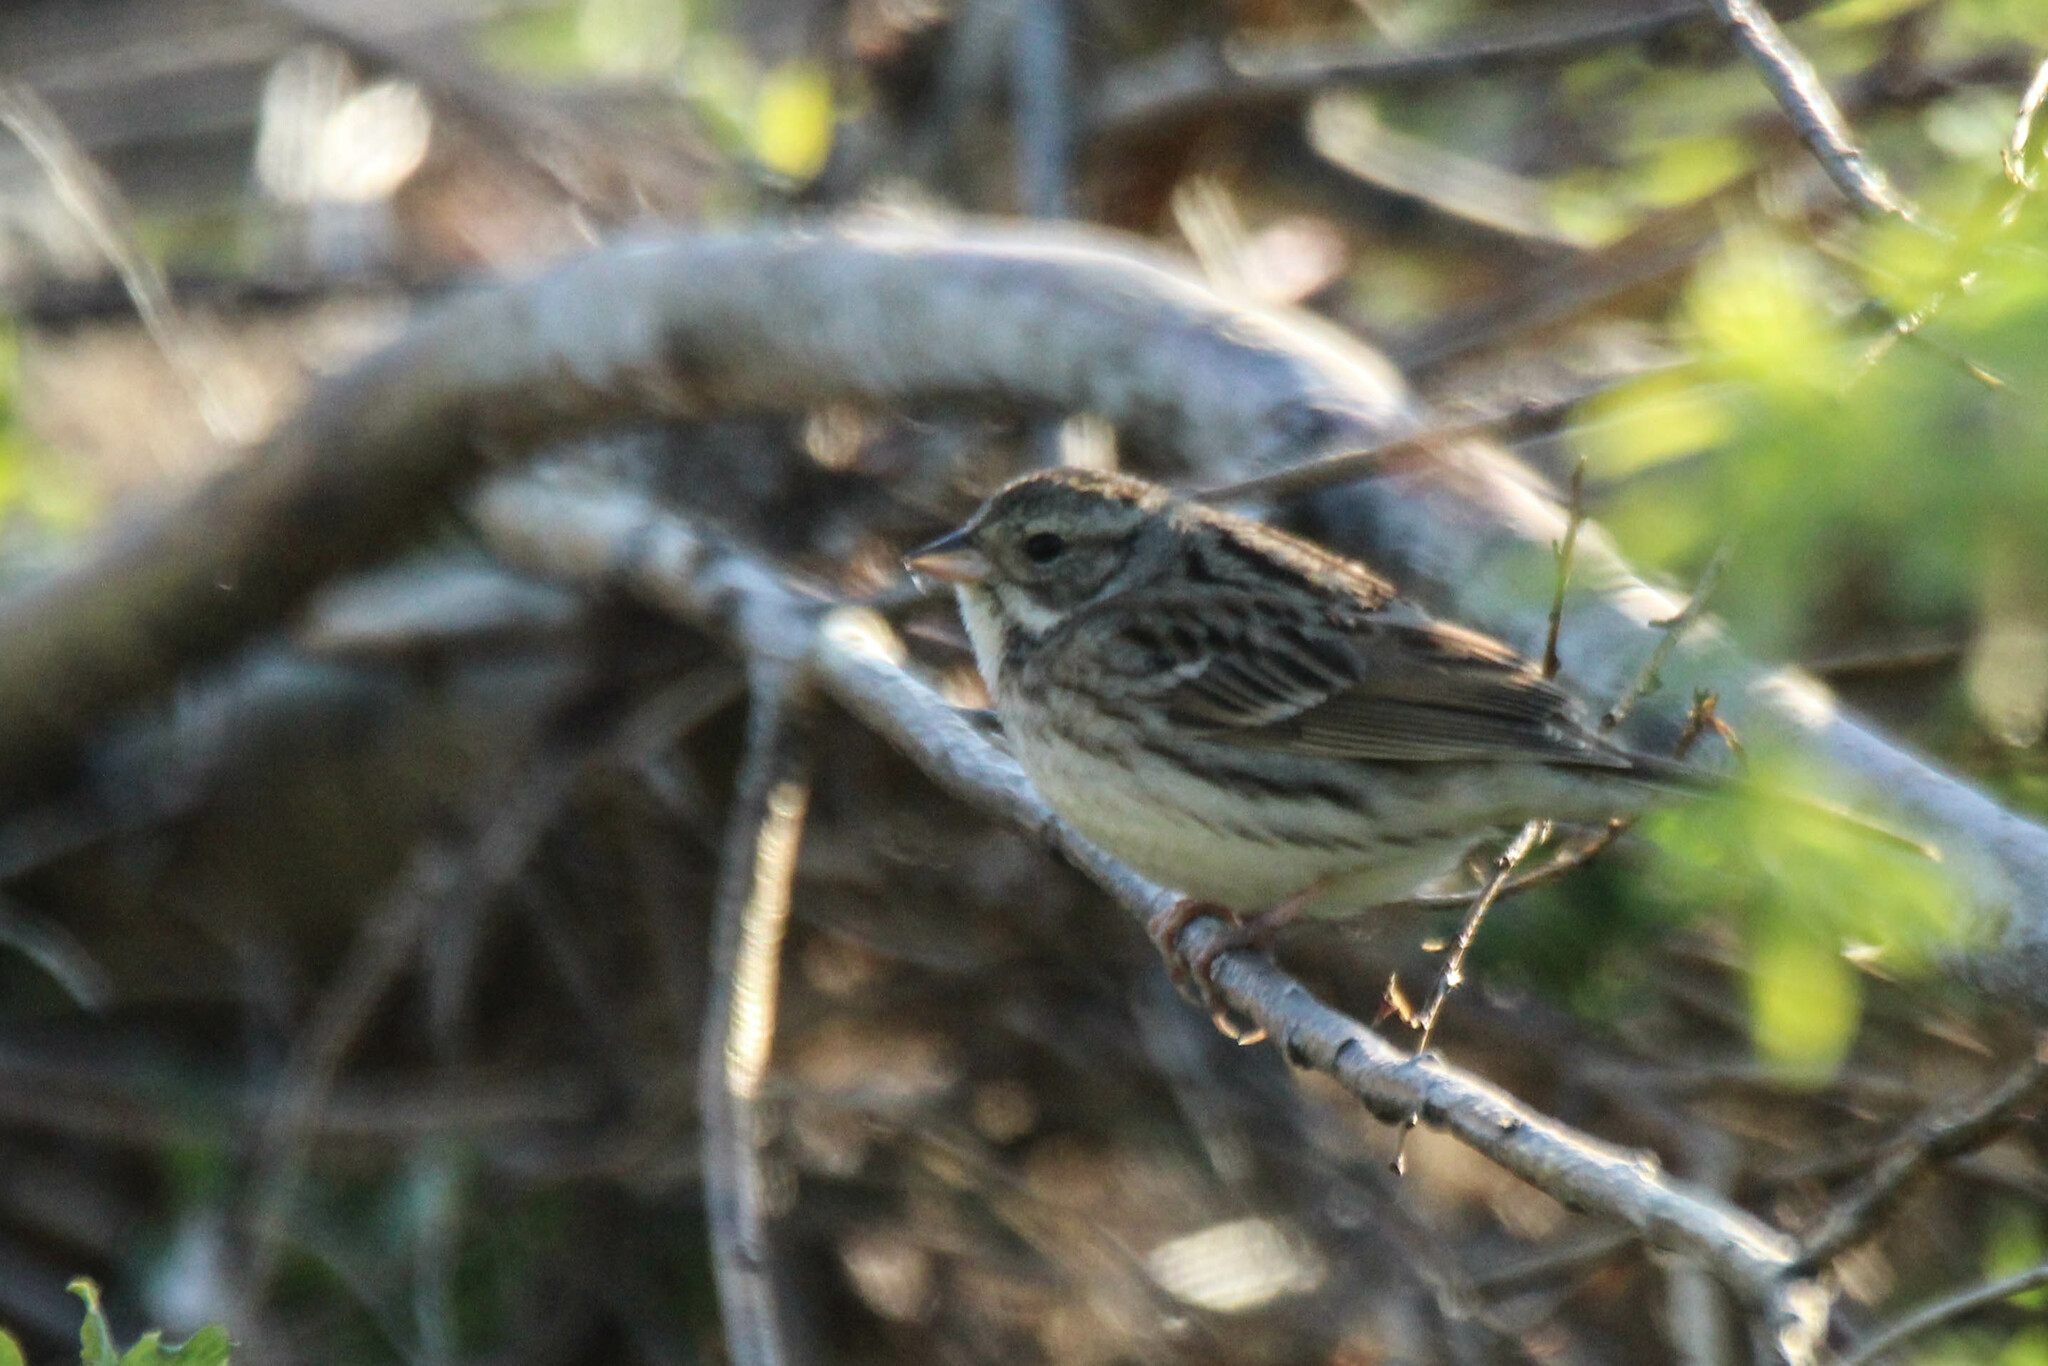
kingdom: Animalia
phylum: Chordata
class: Aves
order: Passeriformes
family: Emberizidae
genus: Emberiza
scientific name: Emberiza spodocephala
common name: Black-faced bunting
